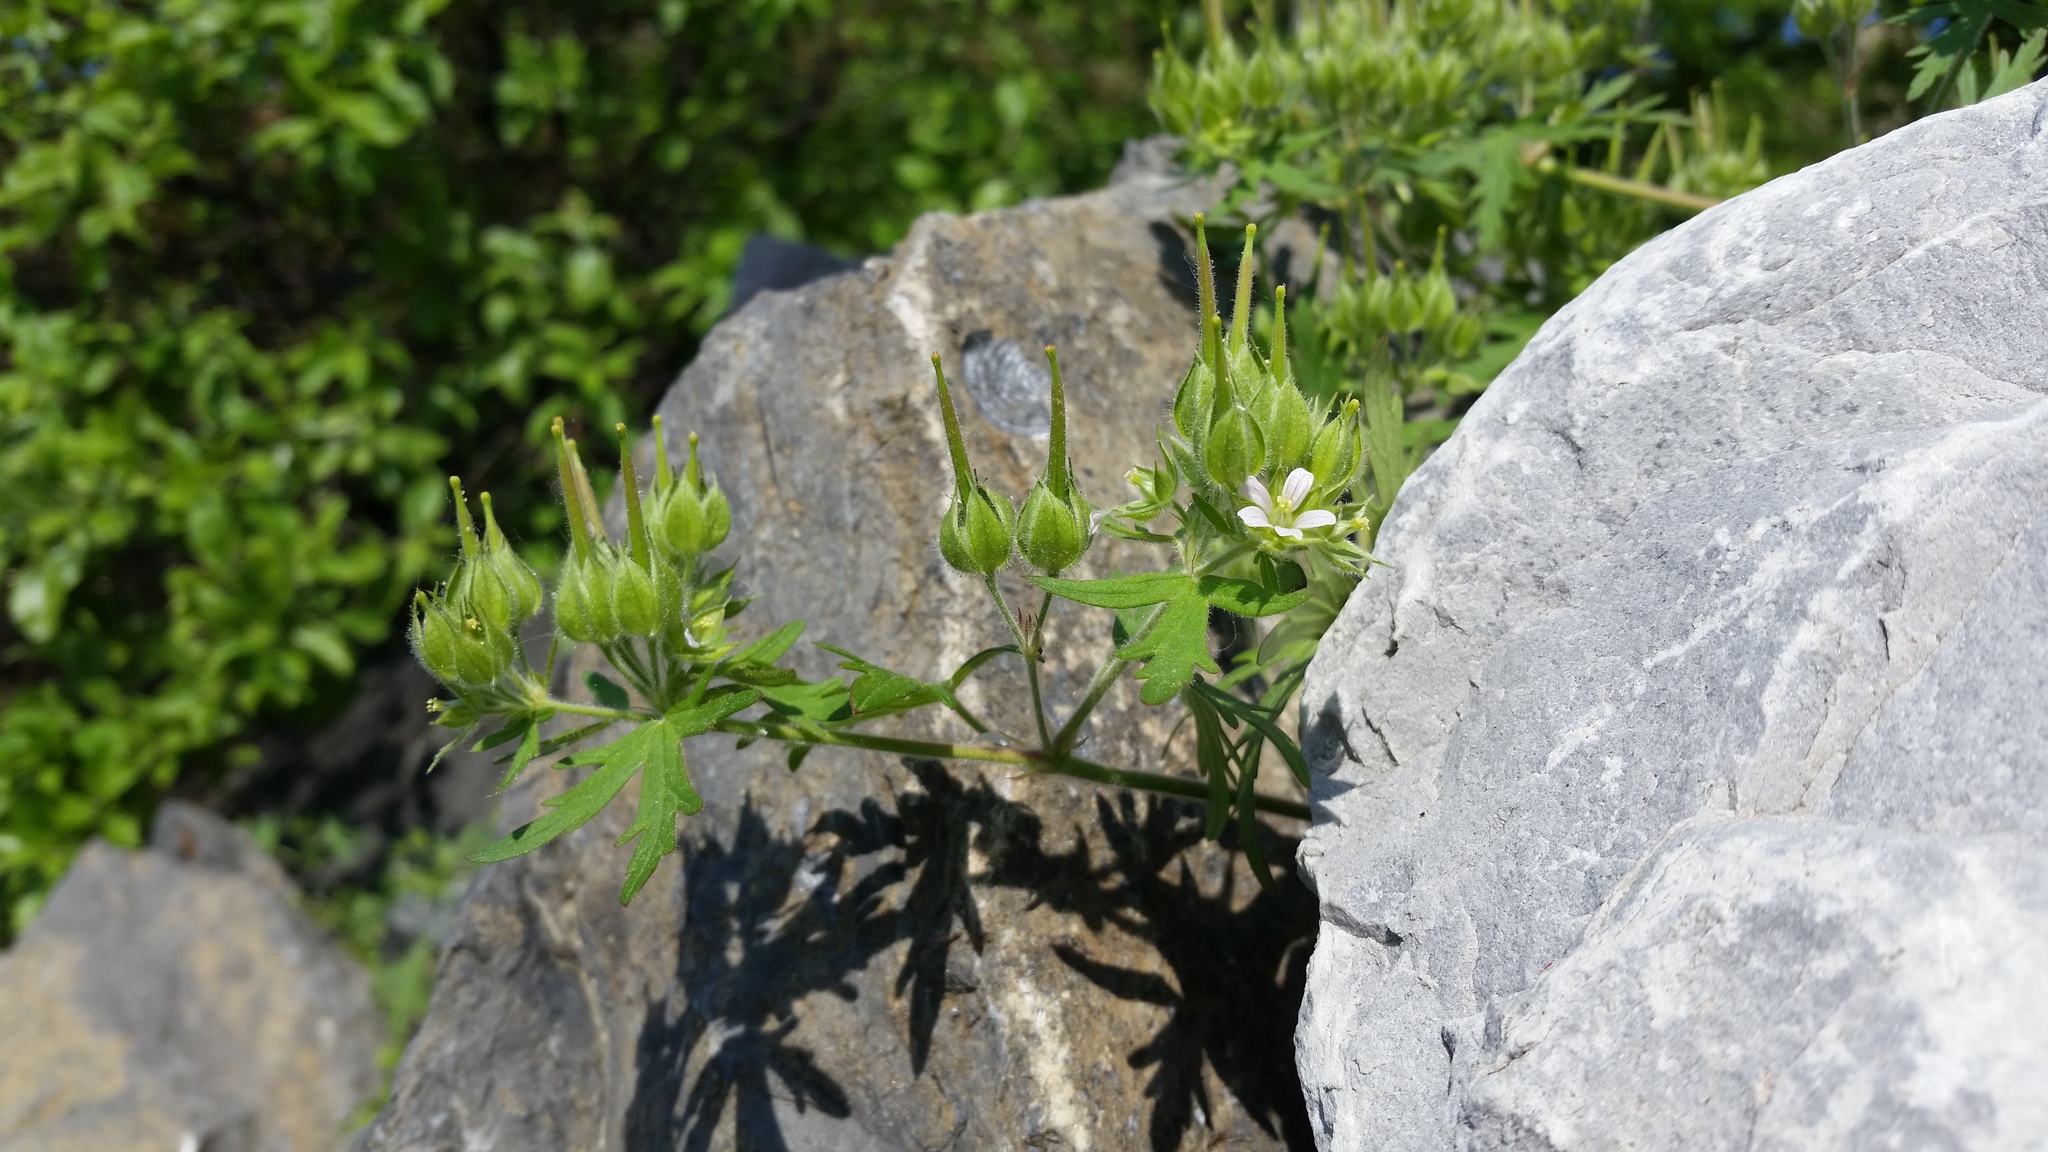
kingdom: Plantae
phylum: Tracheophyta
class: Magnoliopsida
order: Geraniales
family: Geraniaceae
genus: Geranium
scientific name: Geranium carolinianum
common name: Carolina crane's-bill
